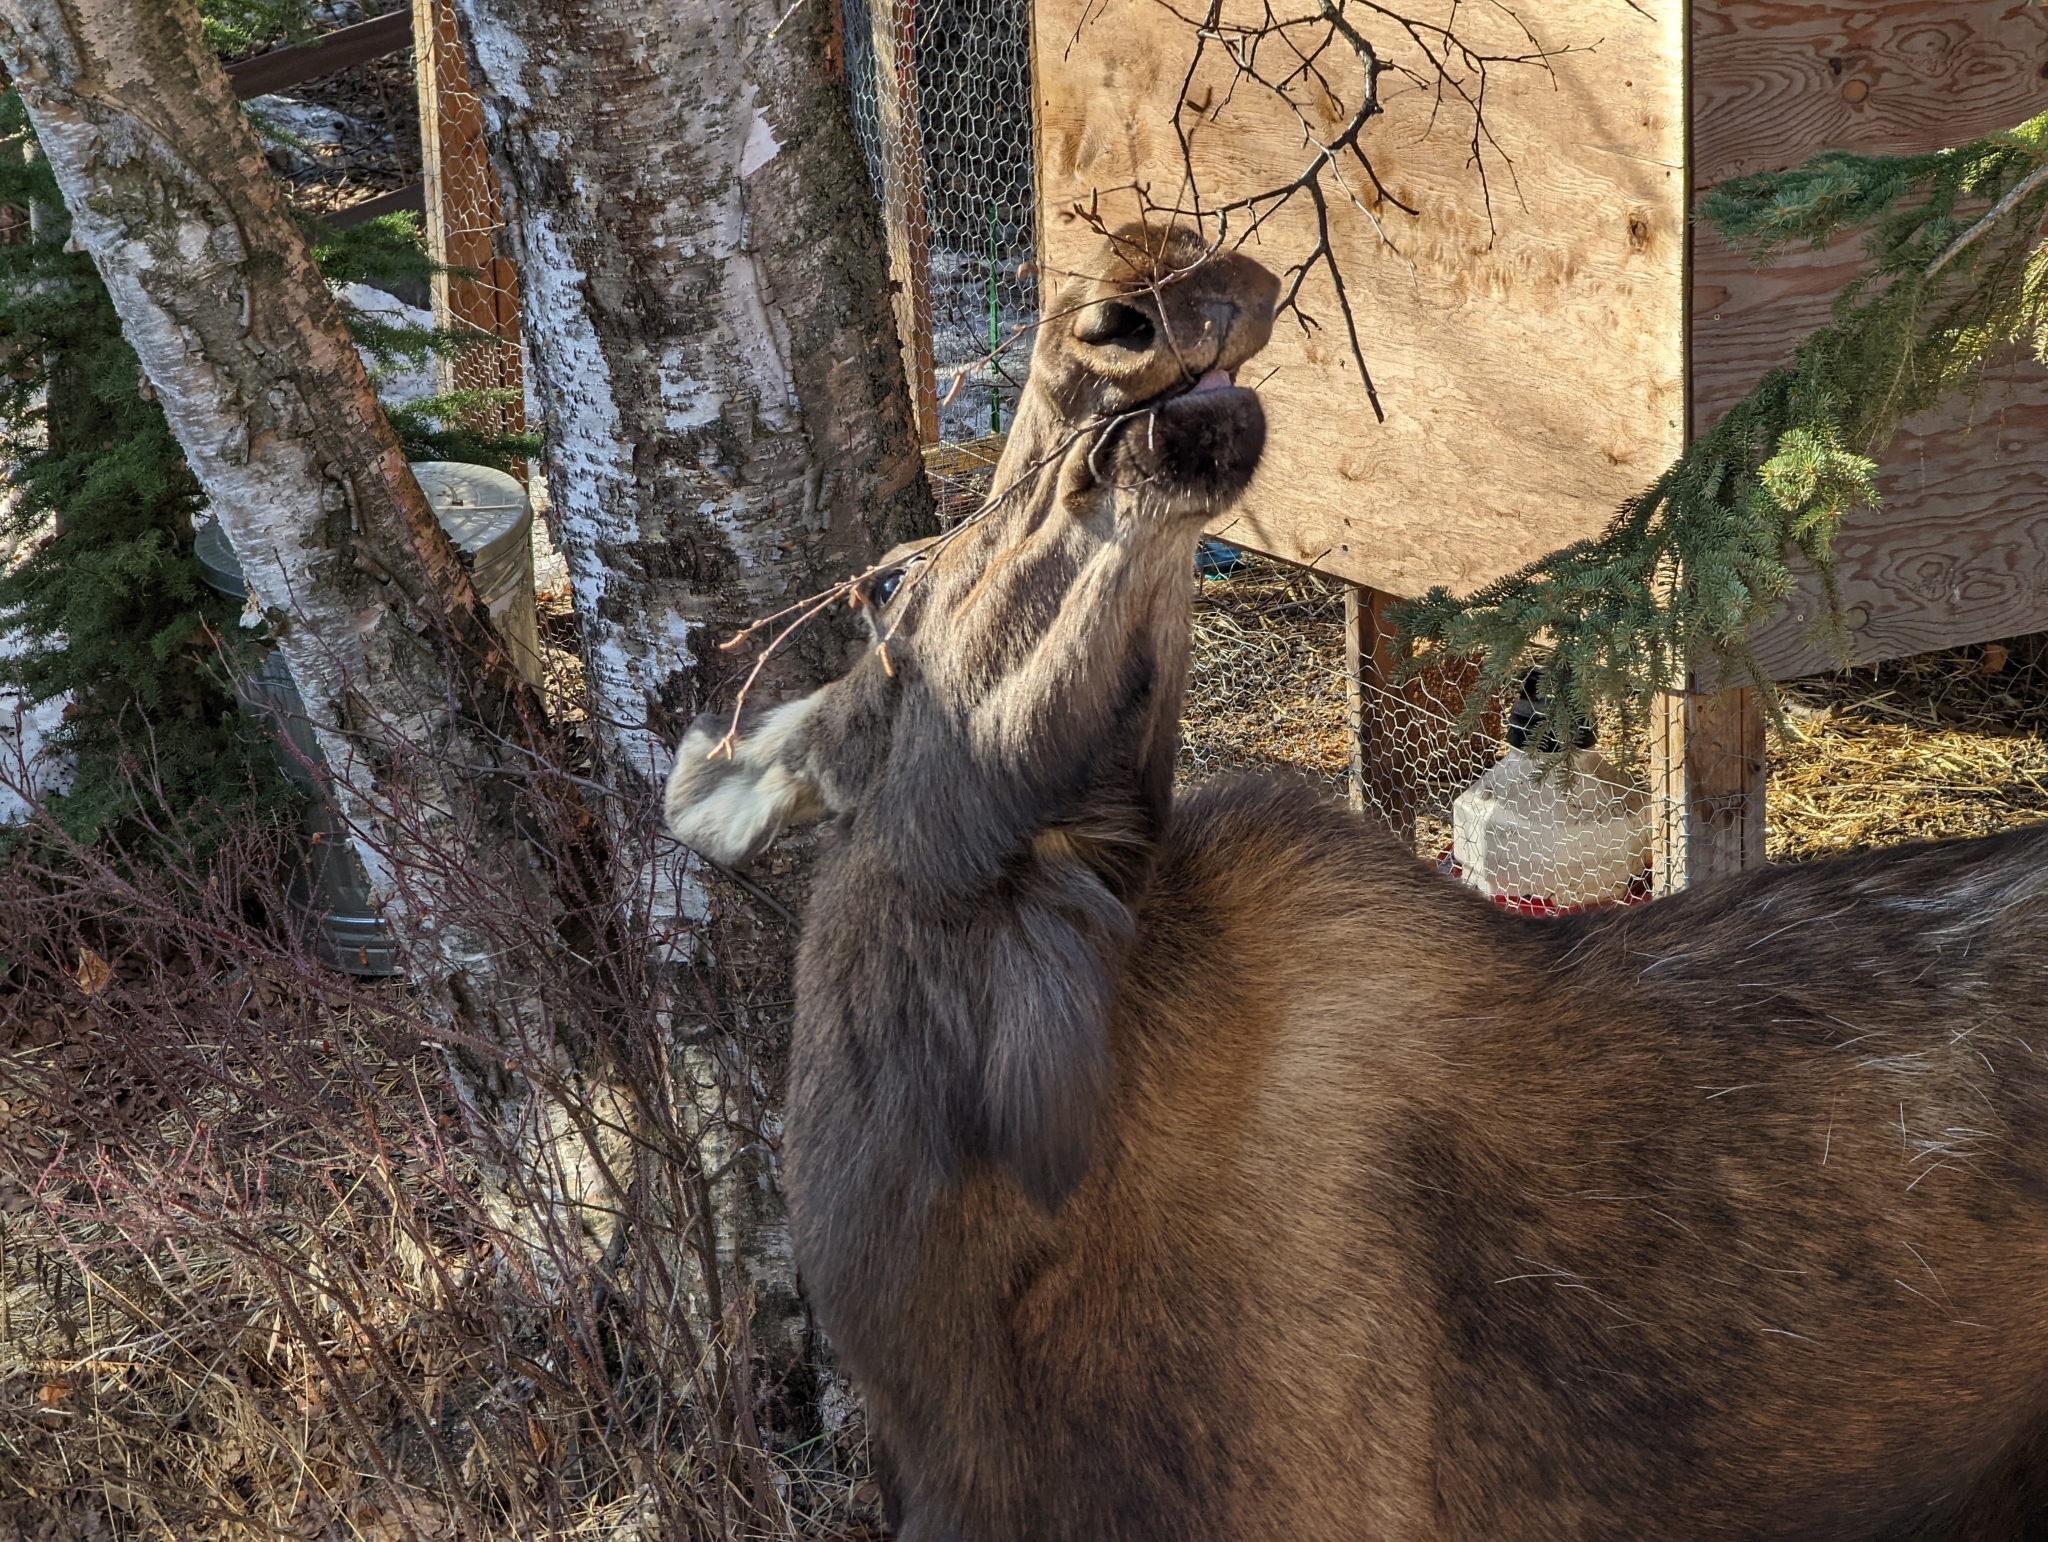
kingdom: Animalia
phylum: Chordata
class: Mammalia
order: Artiodactyla
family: Cervidae
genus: Alces
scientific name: Alces alces
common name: Moose
